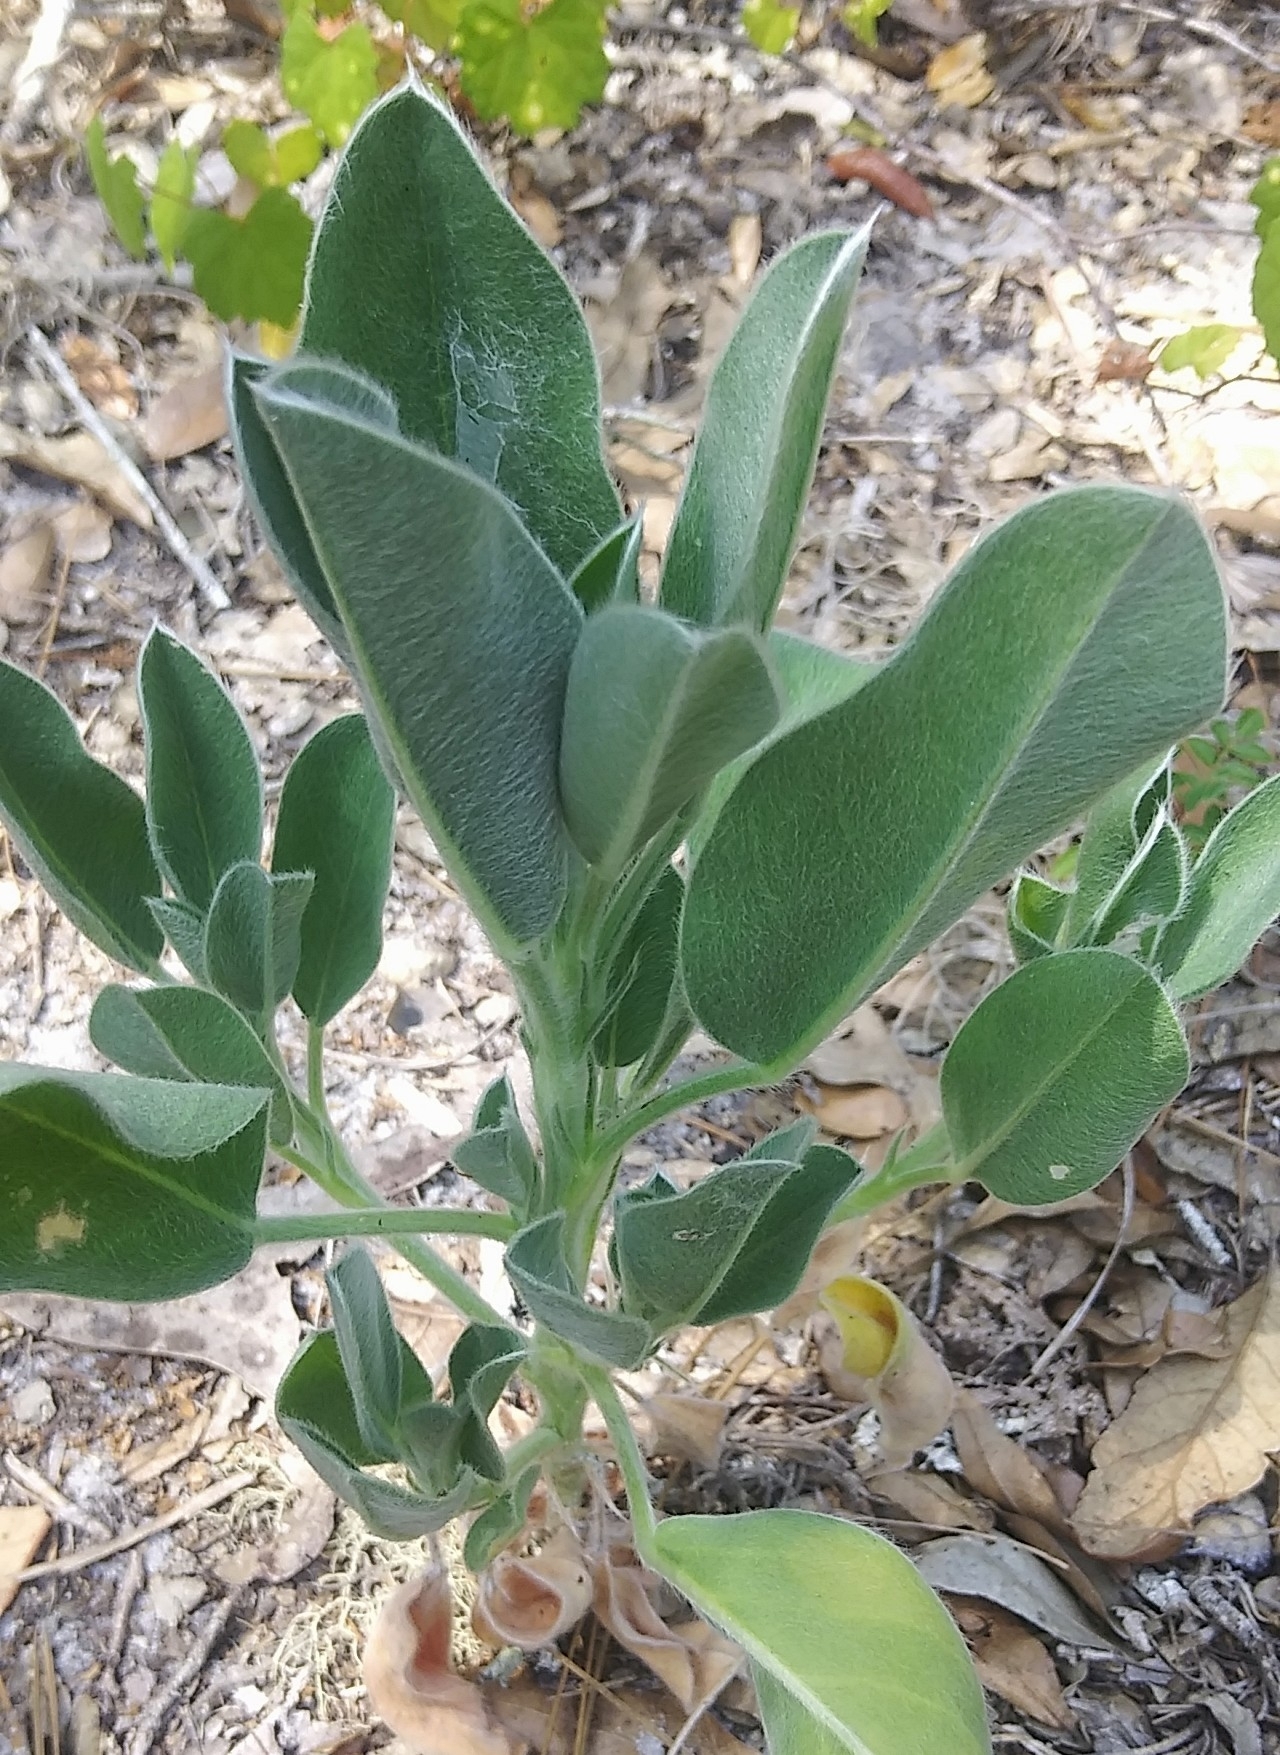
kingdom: Plantae
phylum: Tracheophyta
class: Magnoliopsida
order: Fabales
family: Fabaceae
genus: Lupinus
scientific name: Lupinus
